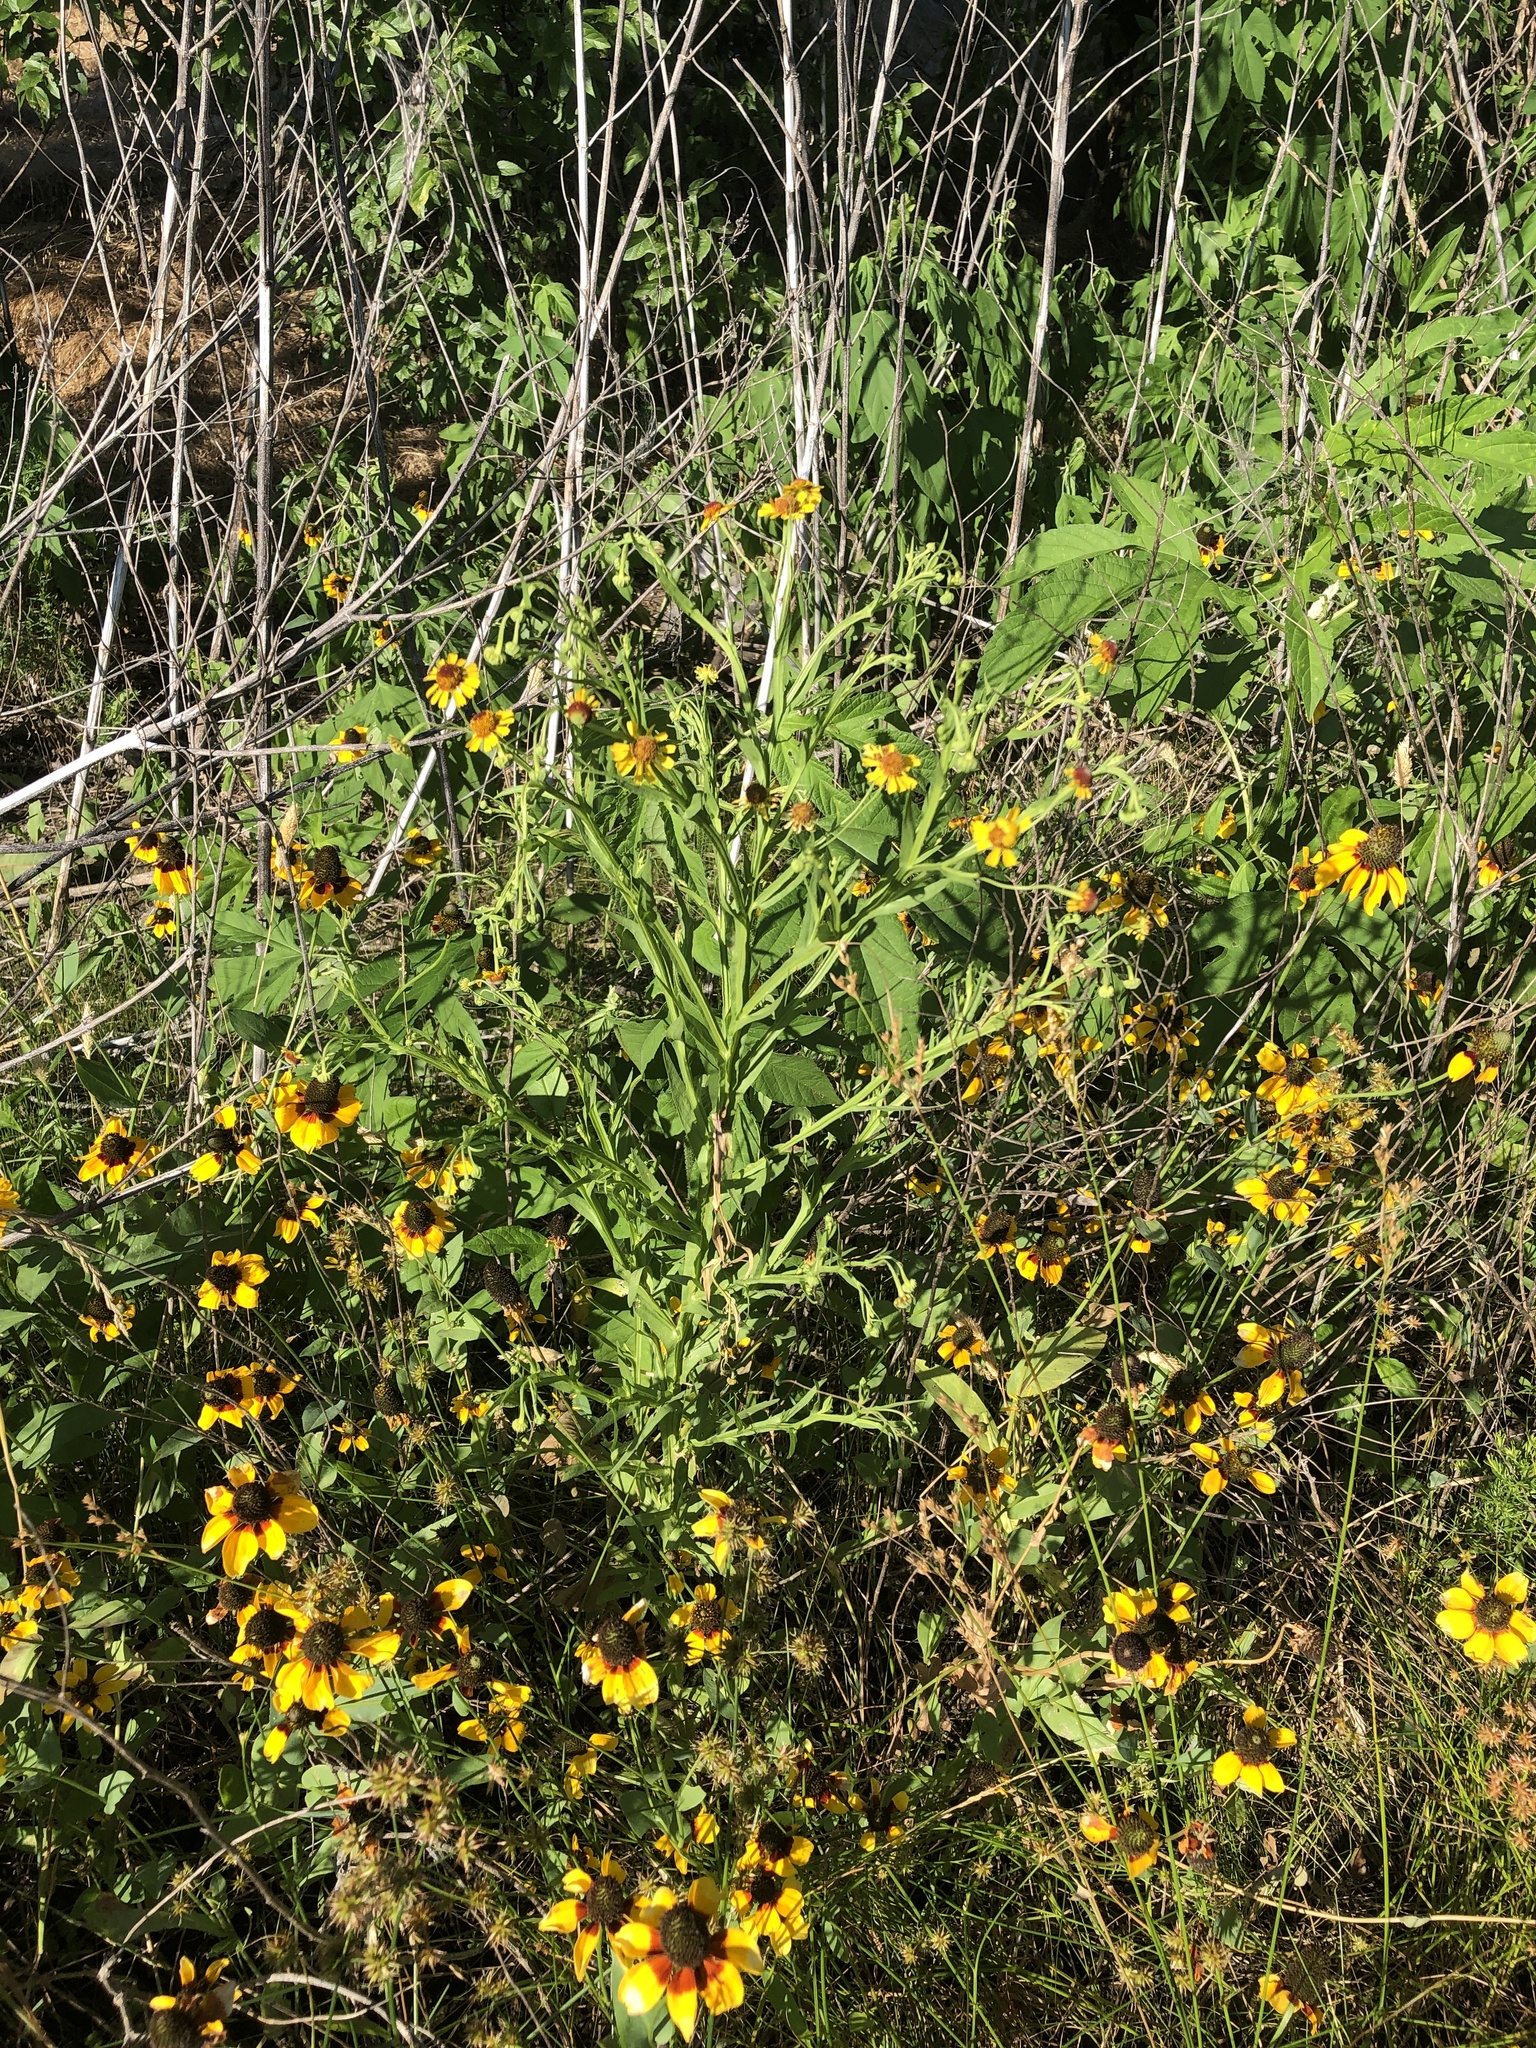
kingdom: Plantae
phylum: Tracheophyta
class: Magnoliopsida
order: Asterales
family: Asteraceae
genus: Helenium
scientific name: Helenium elegans
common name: Pretty sneezeweed
